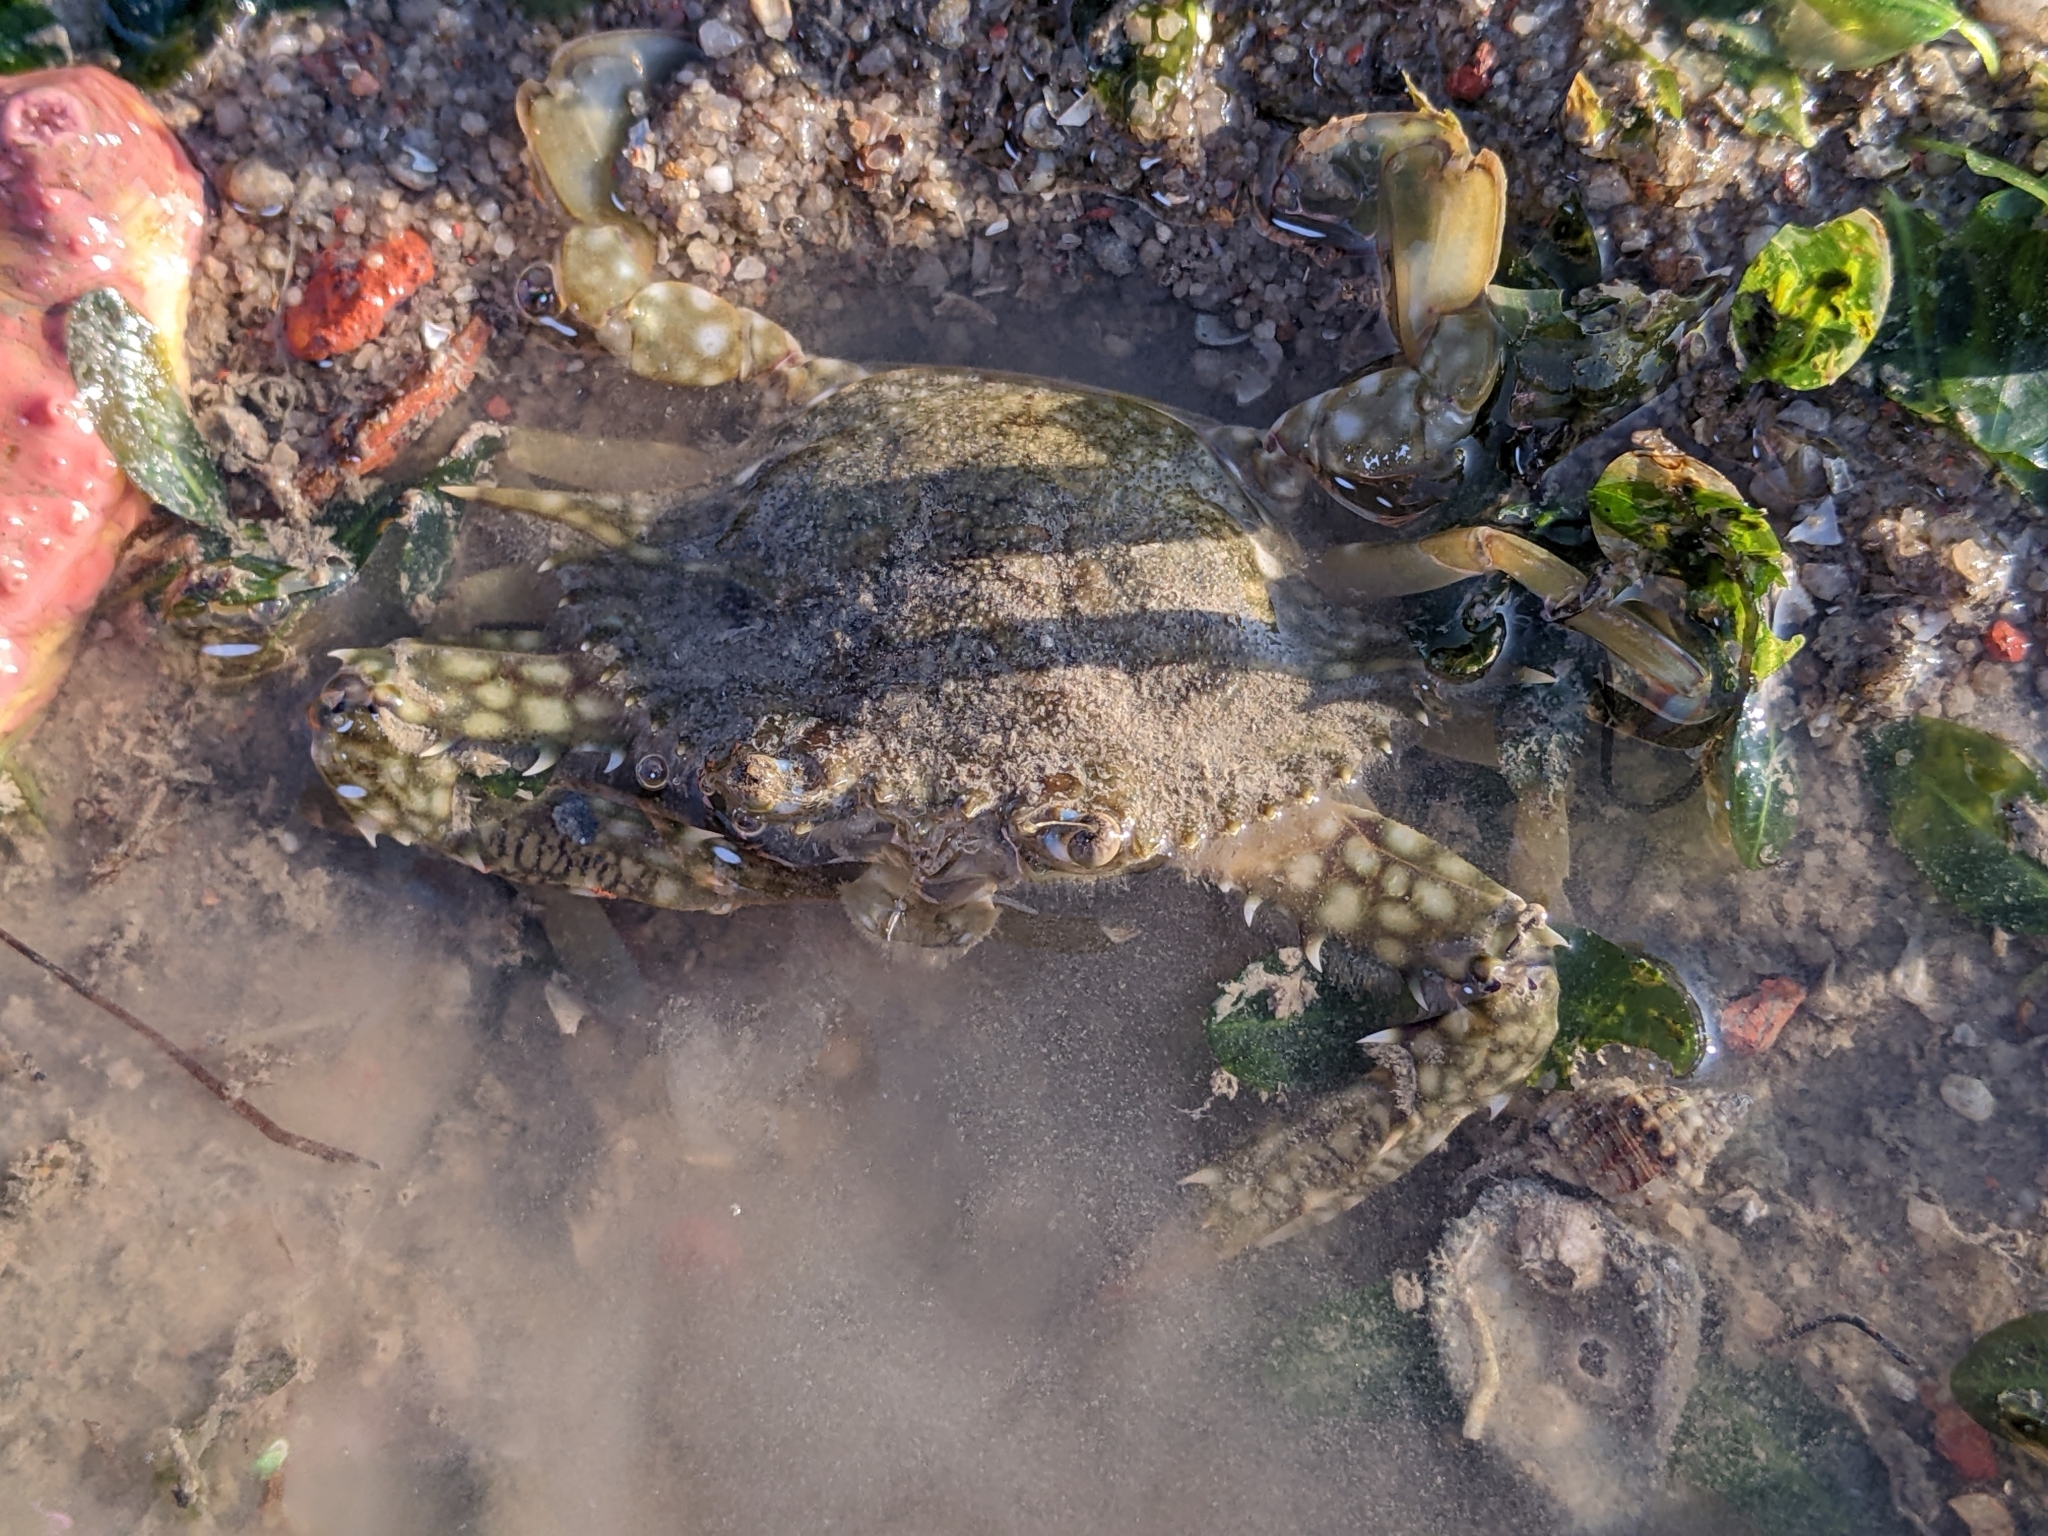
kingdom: Animalia
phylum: Arthropoda
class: Malacostraca
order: Decapoda
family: Portunidae
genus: Portunus
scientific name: Portunus pelagicus
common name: Blue swimming crab
